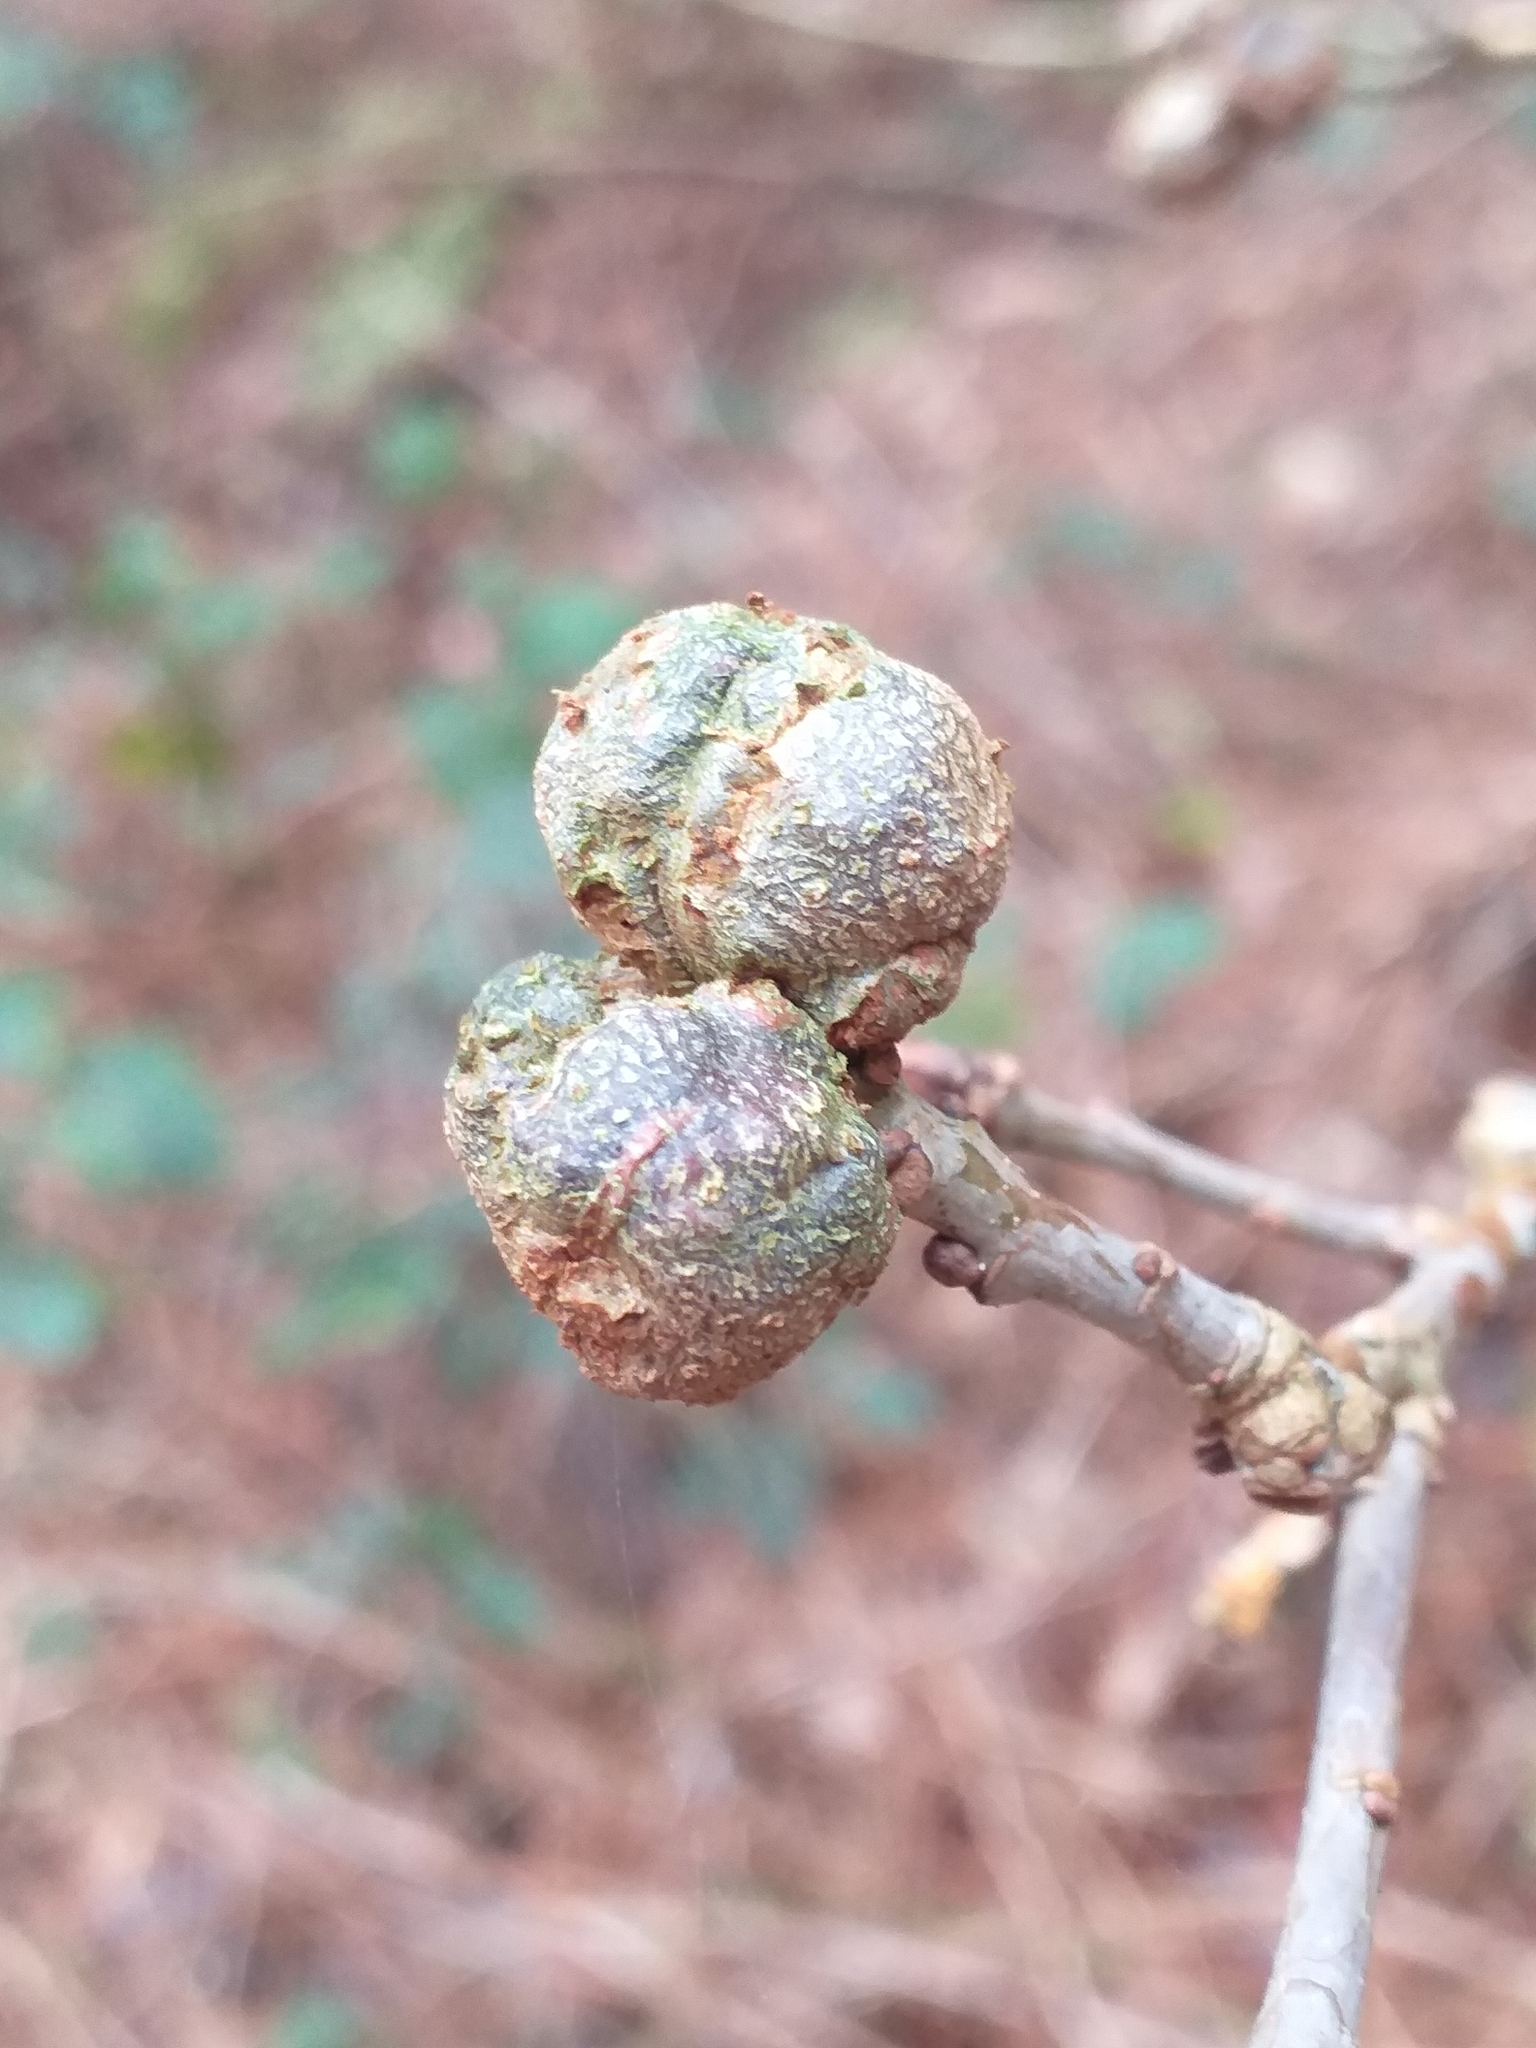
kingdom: Animalia
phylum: Arthropoda
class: Insecta
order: Hymenoptera
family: Cynipidae
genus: Andricus
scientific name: Andricus lignicolus
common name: Cola-nut gall
